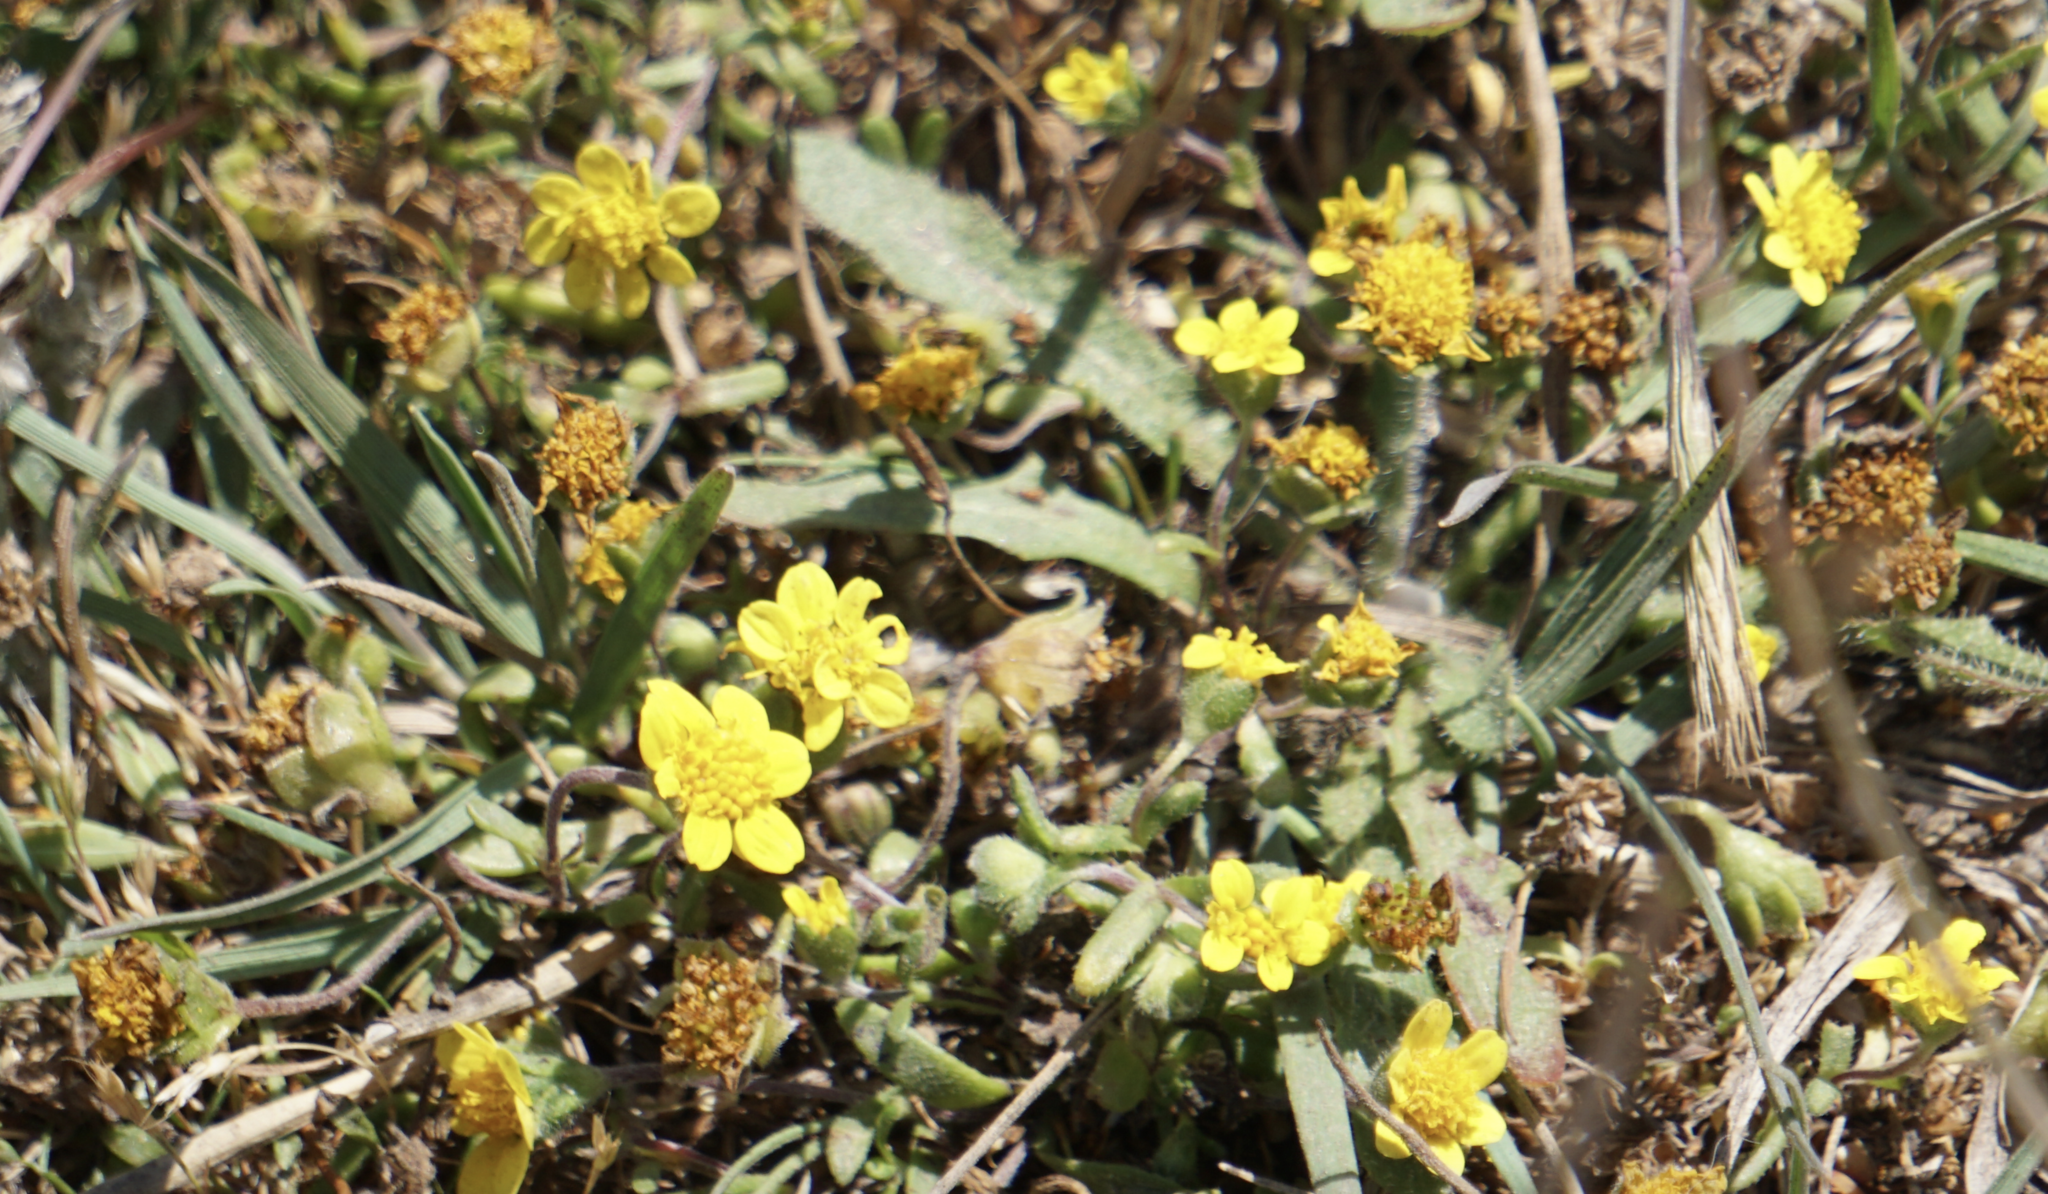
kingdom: Plantae
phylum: Tracheophyta
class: Magnoliopsida
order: Asterales
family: Asteraceae
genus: Lasthenia
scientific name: Lasthenia californica
